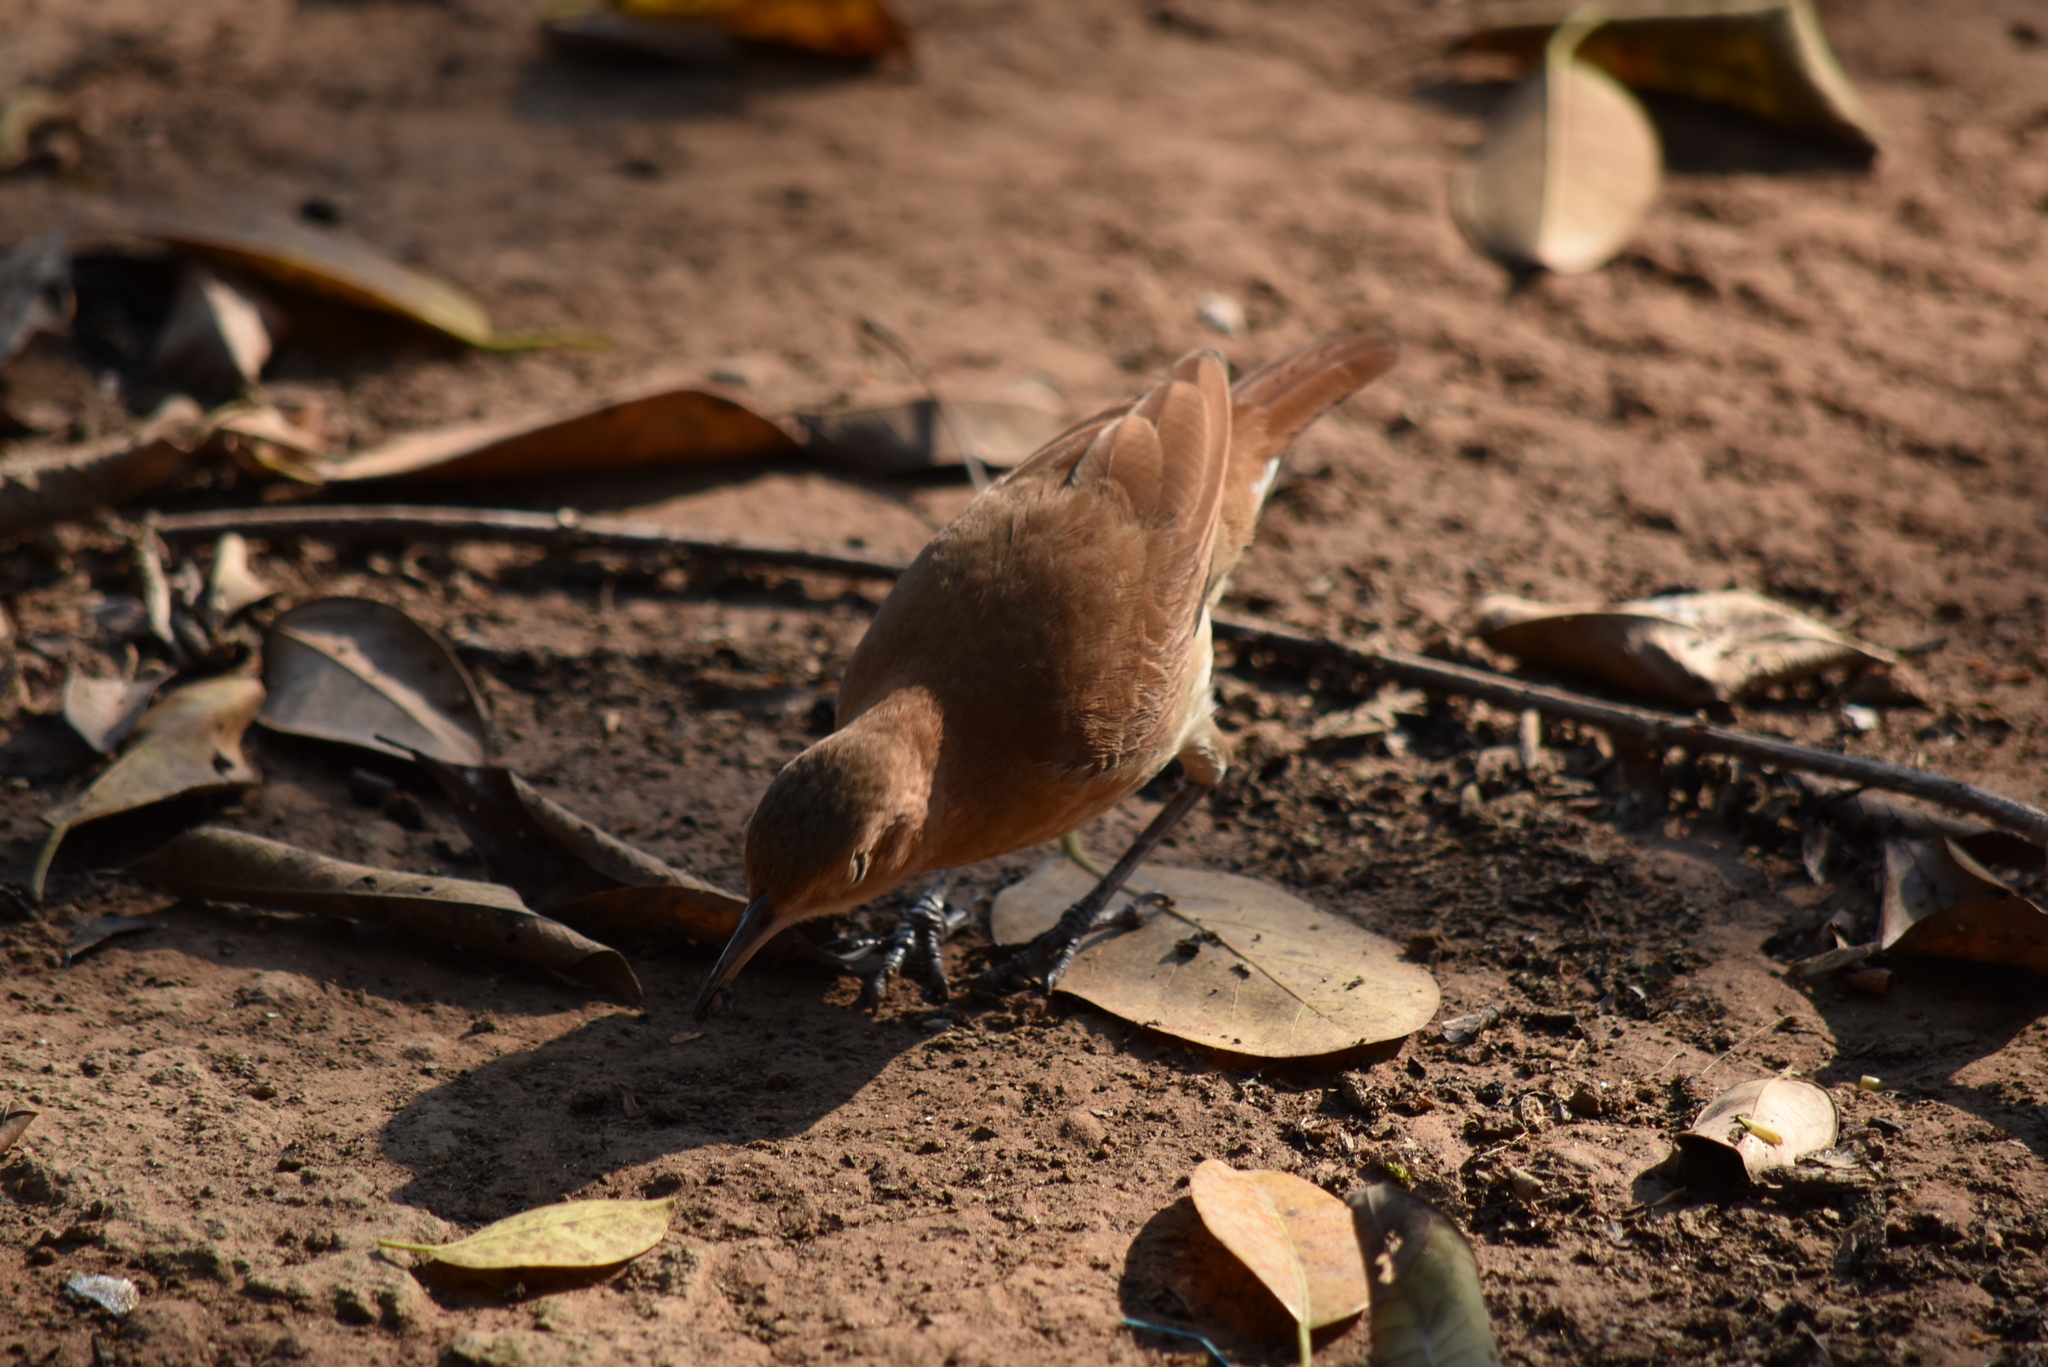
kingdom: Animalia
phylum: Chordata
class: Aves
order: Passeriformes
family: Furnariidae
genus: Furnarius
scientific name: Furnarius rufus
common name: Rufous hornero
